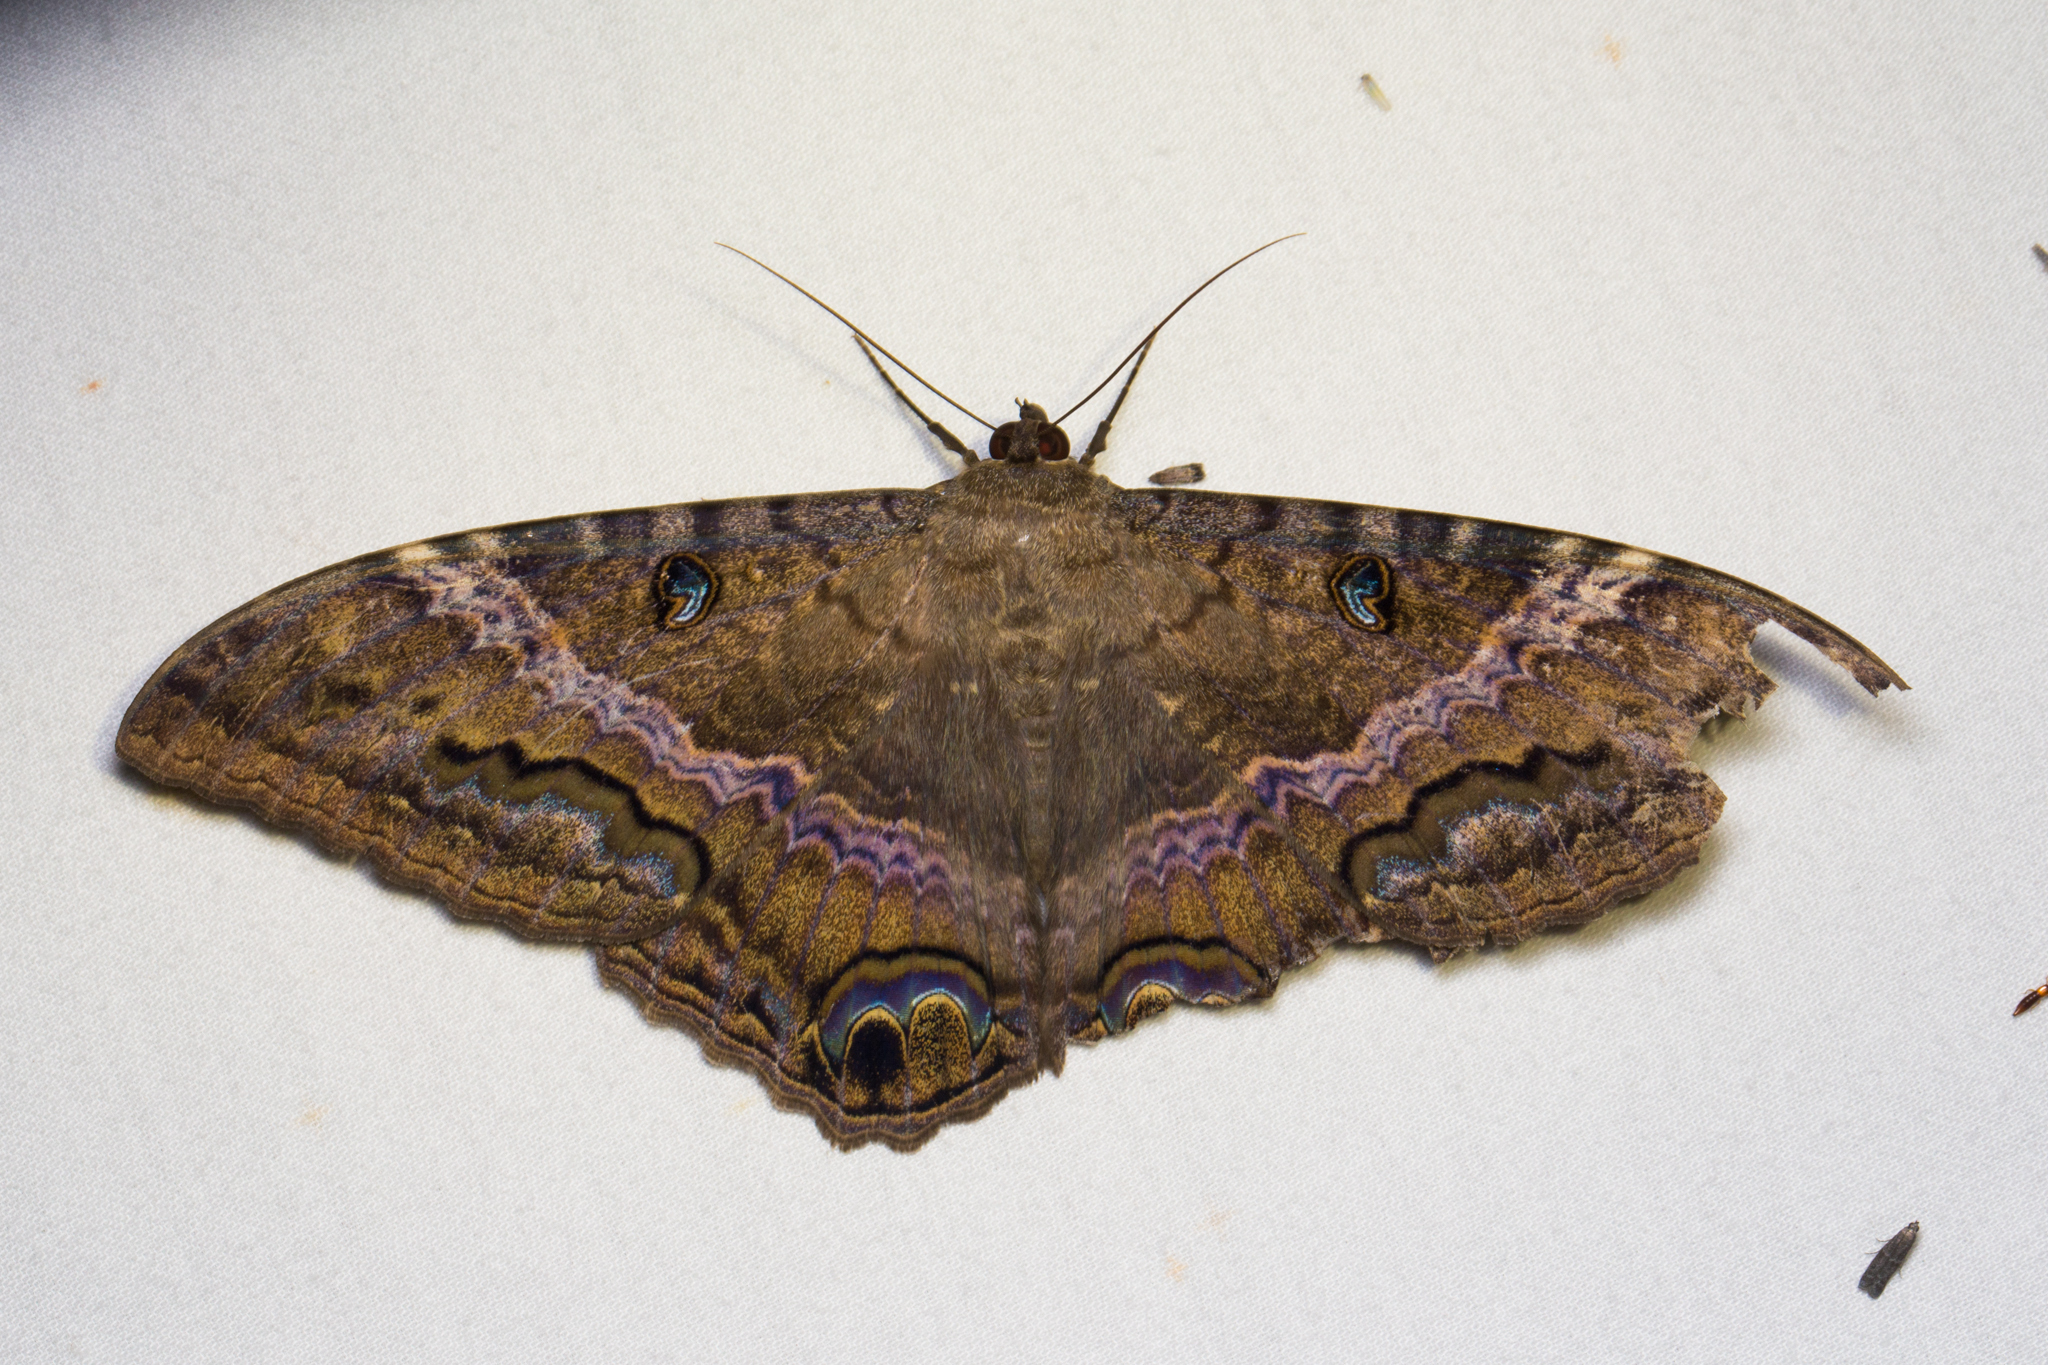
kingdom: Animalia
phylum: Arthropoda
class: Insecta
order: Lepidoptera
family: Erebidae
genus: Ascalapha
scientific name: Ascalapha odorata
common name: Black witch
